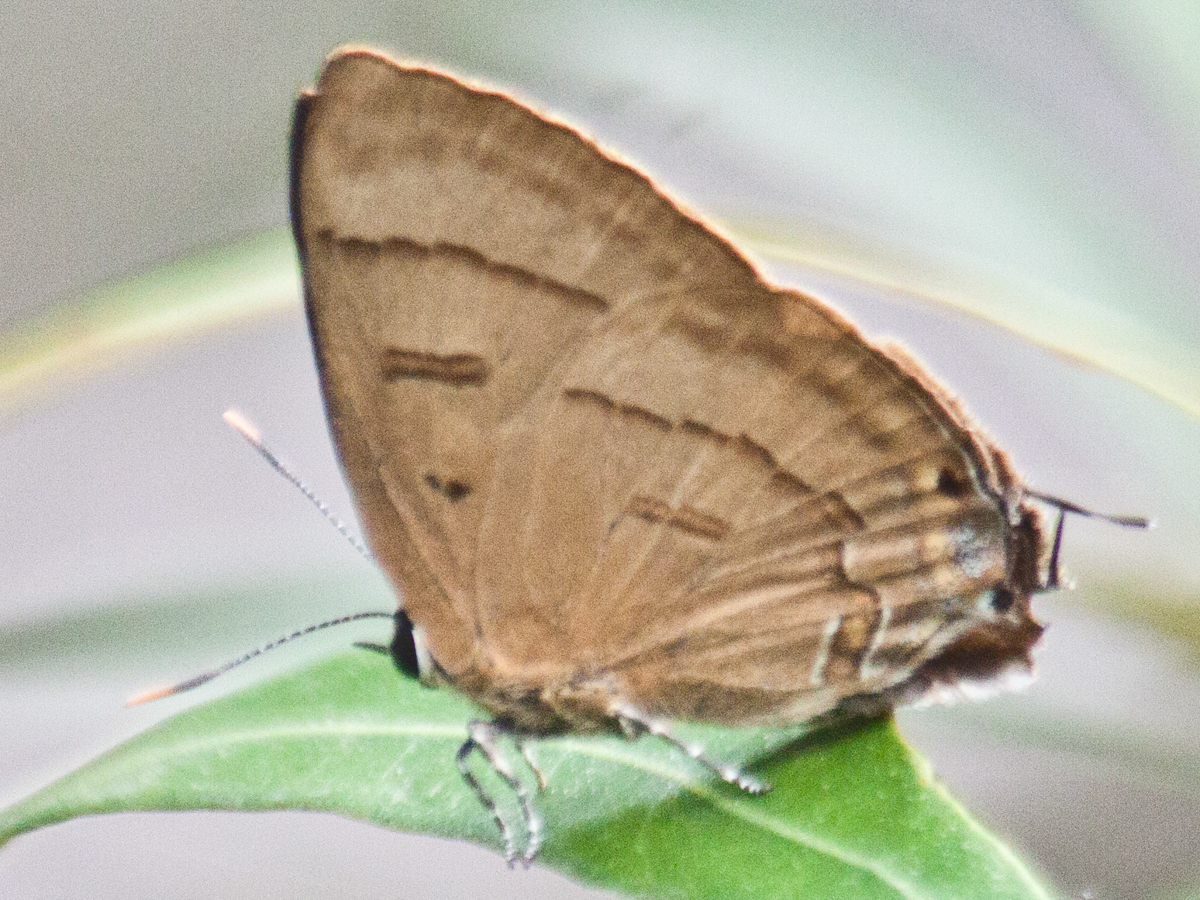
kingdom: Animalia
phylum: Arthropoda
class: Insecta
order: Lepidoptera
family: Lycaenidae
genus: Rapala
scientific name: Rapala pheretima
